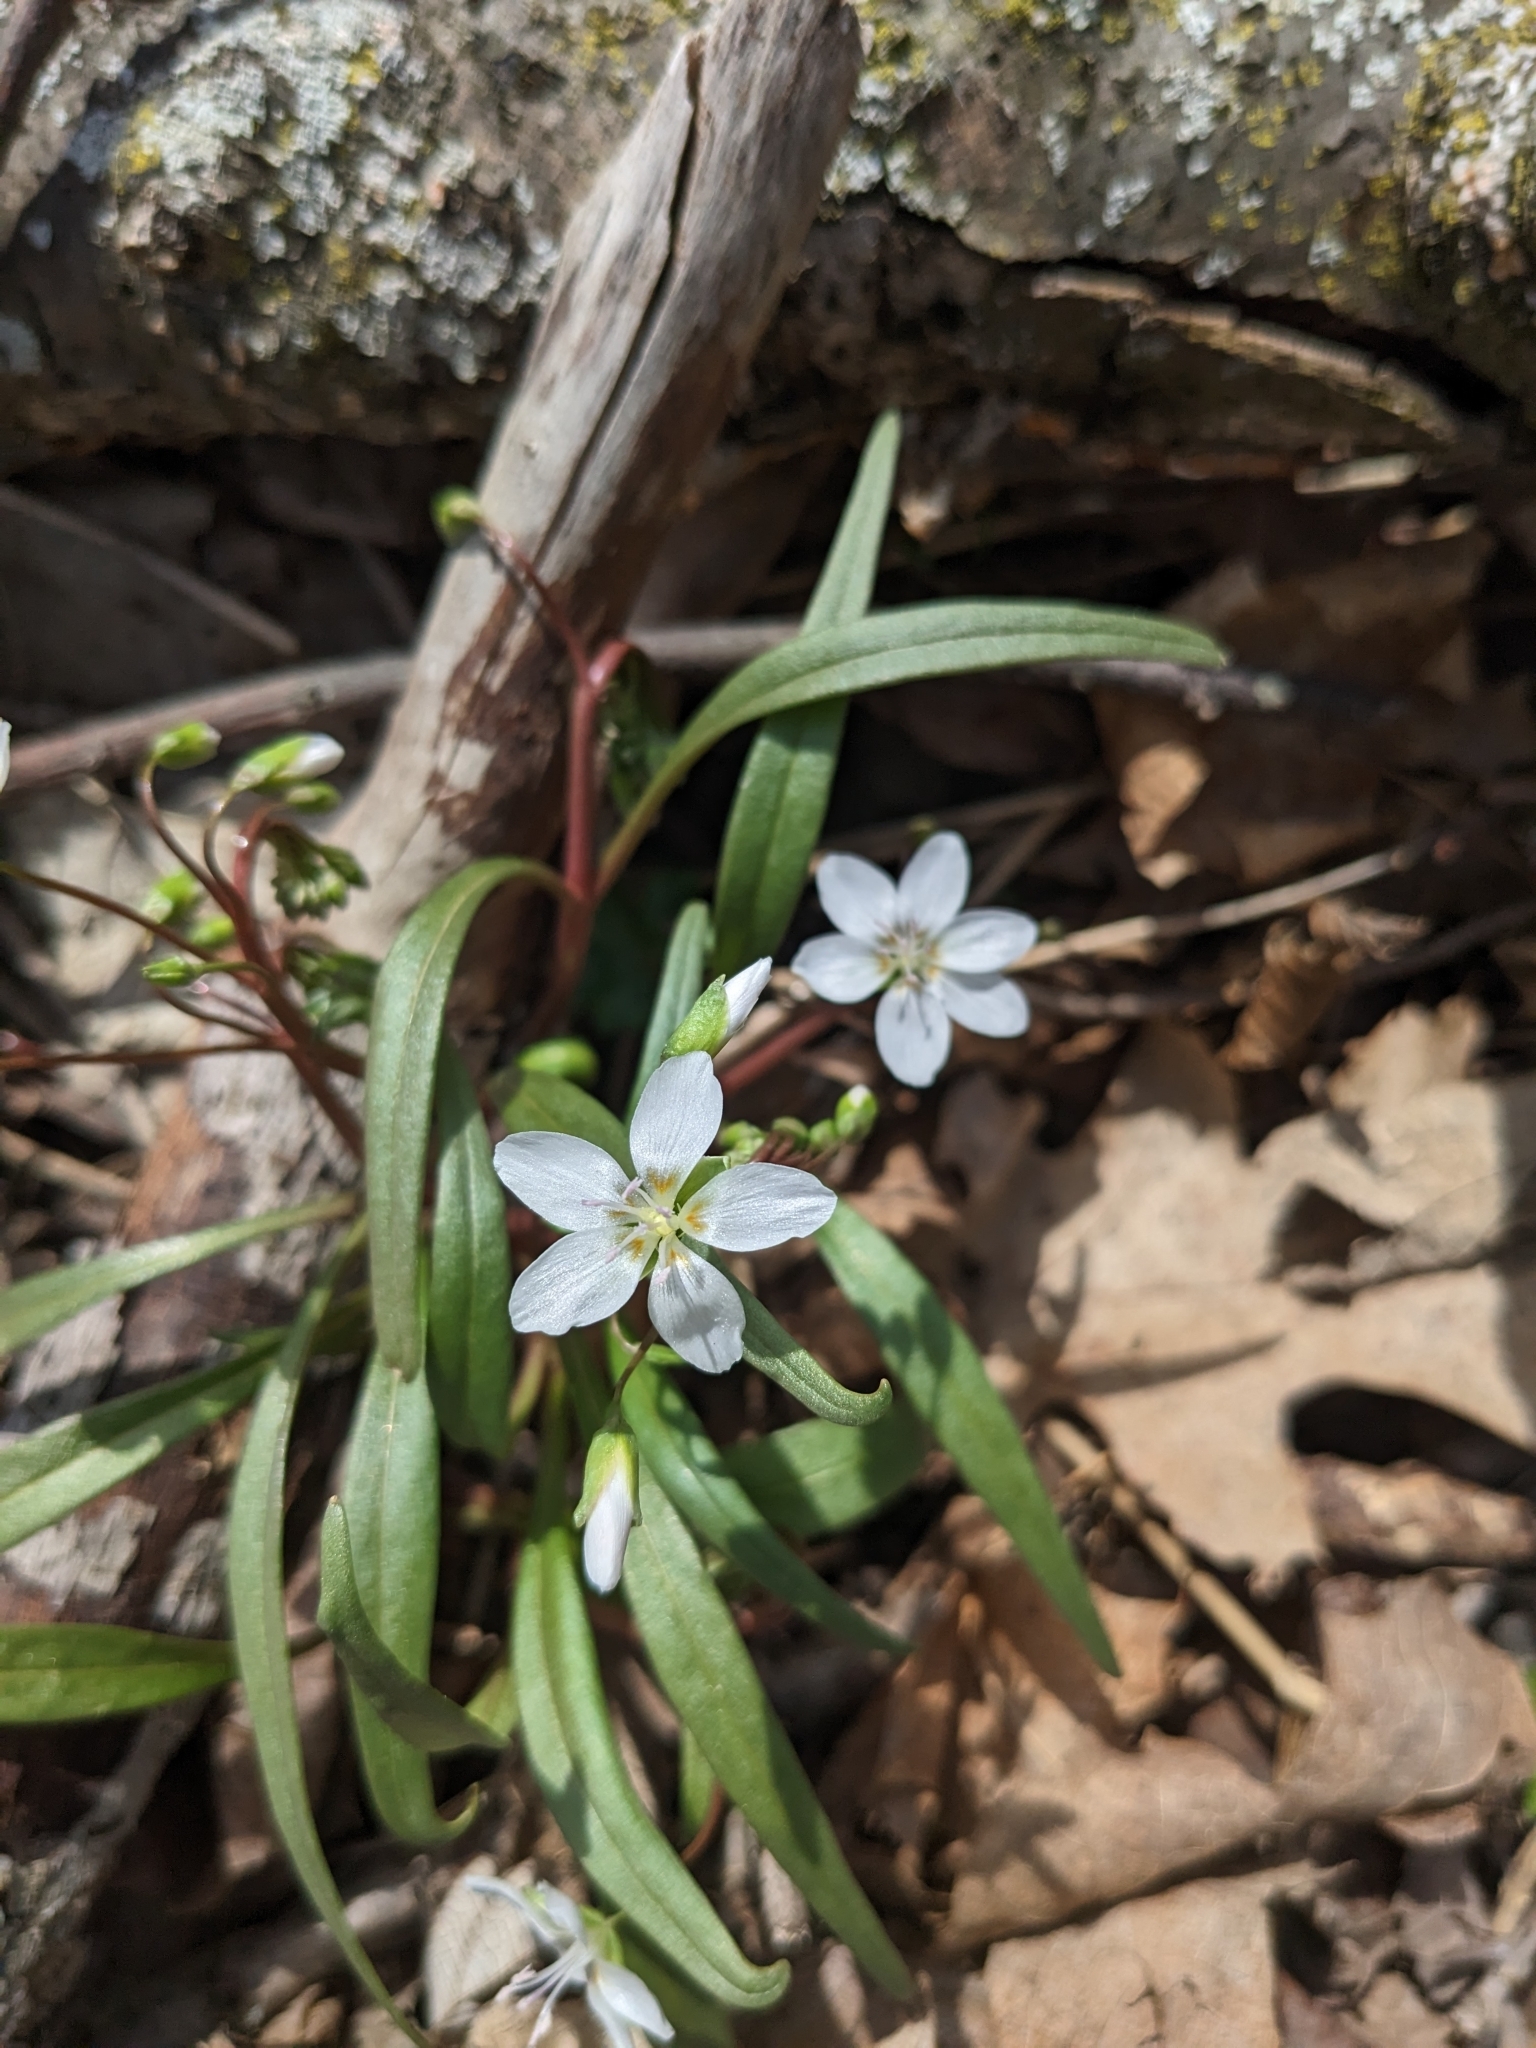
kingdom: Plantae
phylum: Tracheophyta
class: Magnoliopsida
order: Caryophyllales
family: Montiaceae
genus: Claytonia
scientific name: Claytonia virginica
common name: Virginia springbeauty
